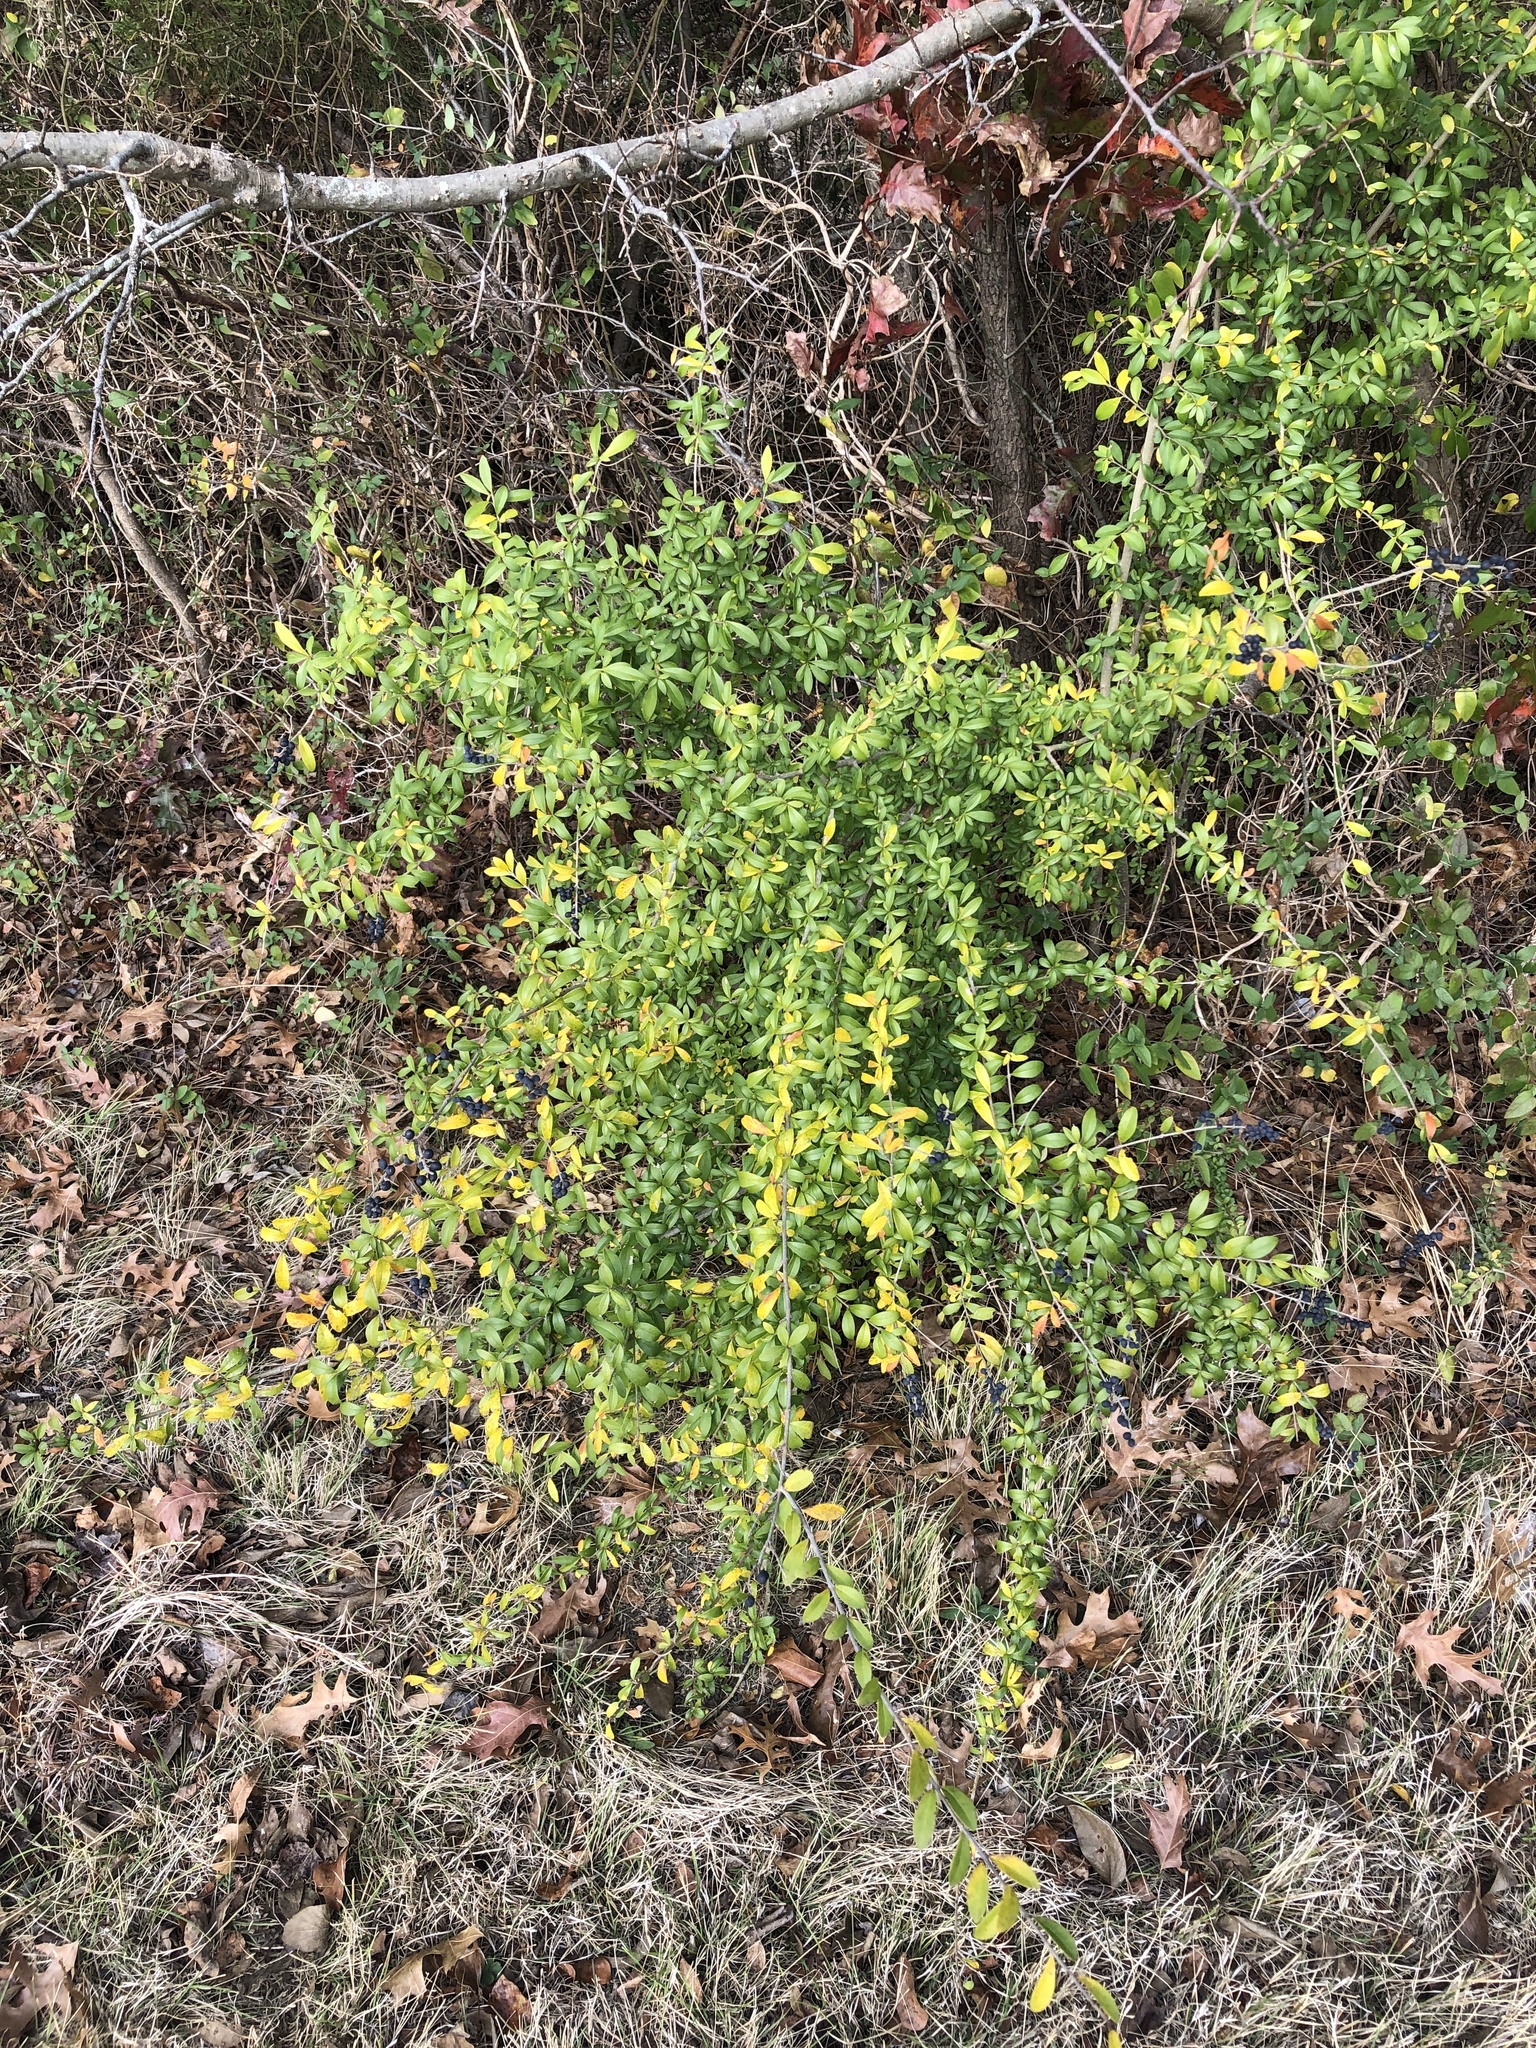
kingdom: Plantae
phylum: Tracheophyta
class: Magnoliopsida
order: Lamiales
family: Oleaceae
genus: Ligustrum
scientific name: Ligustrum quihoui
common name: Waxyleaf privet
